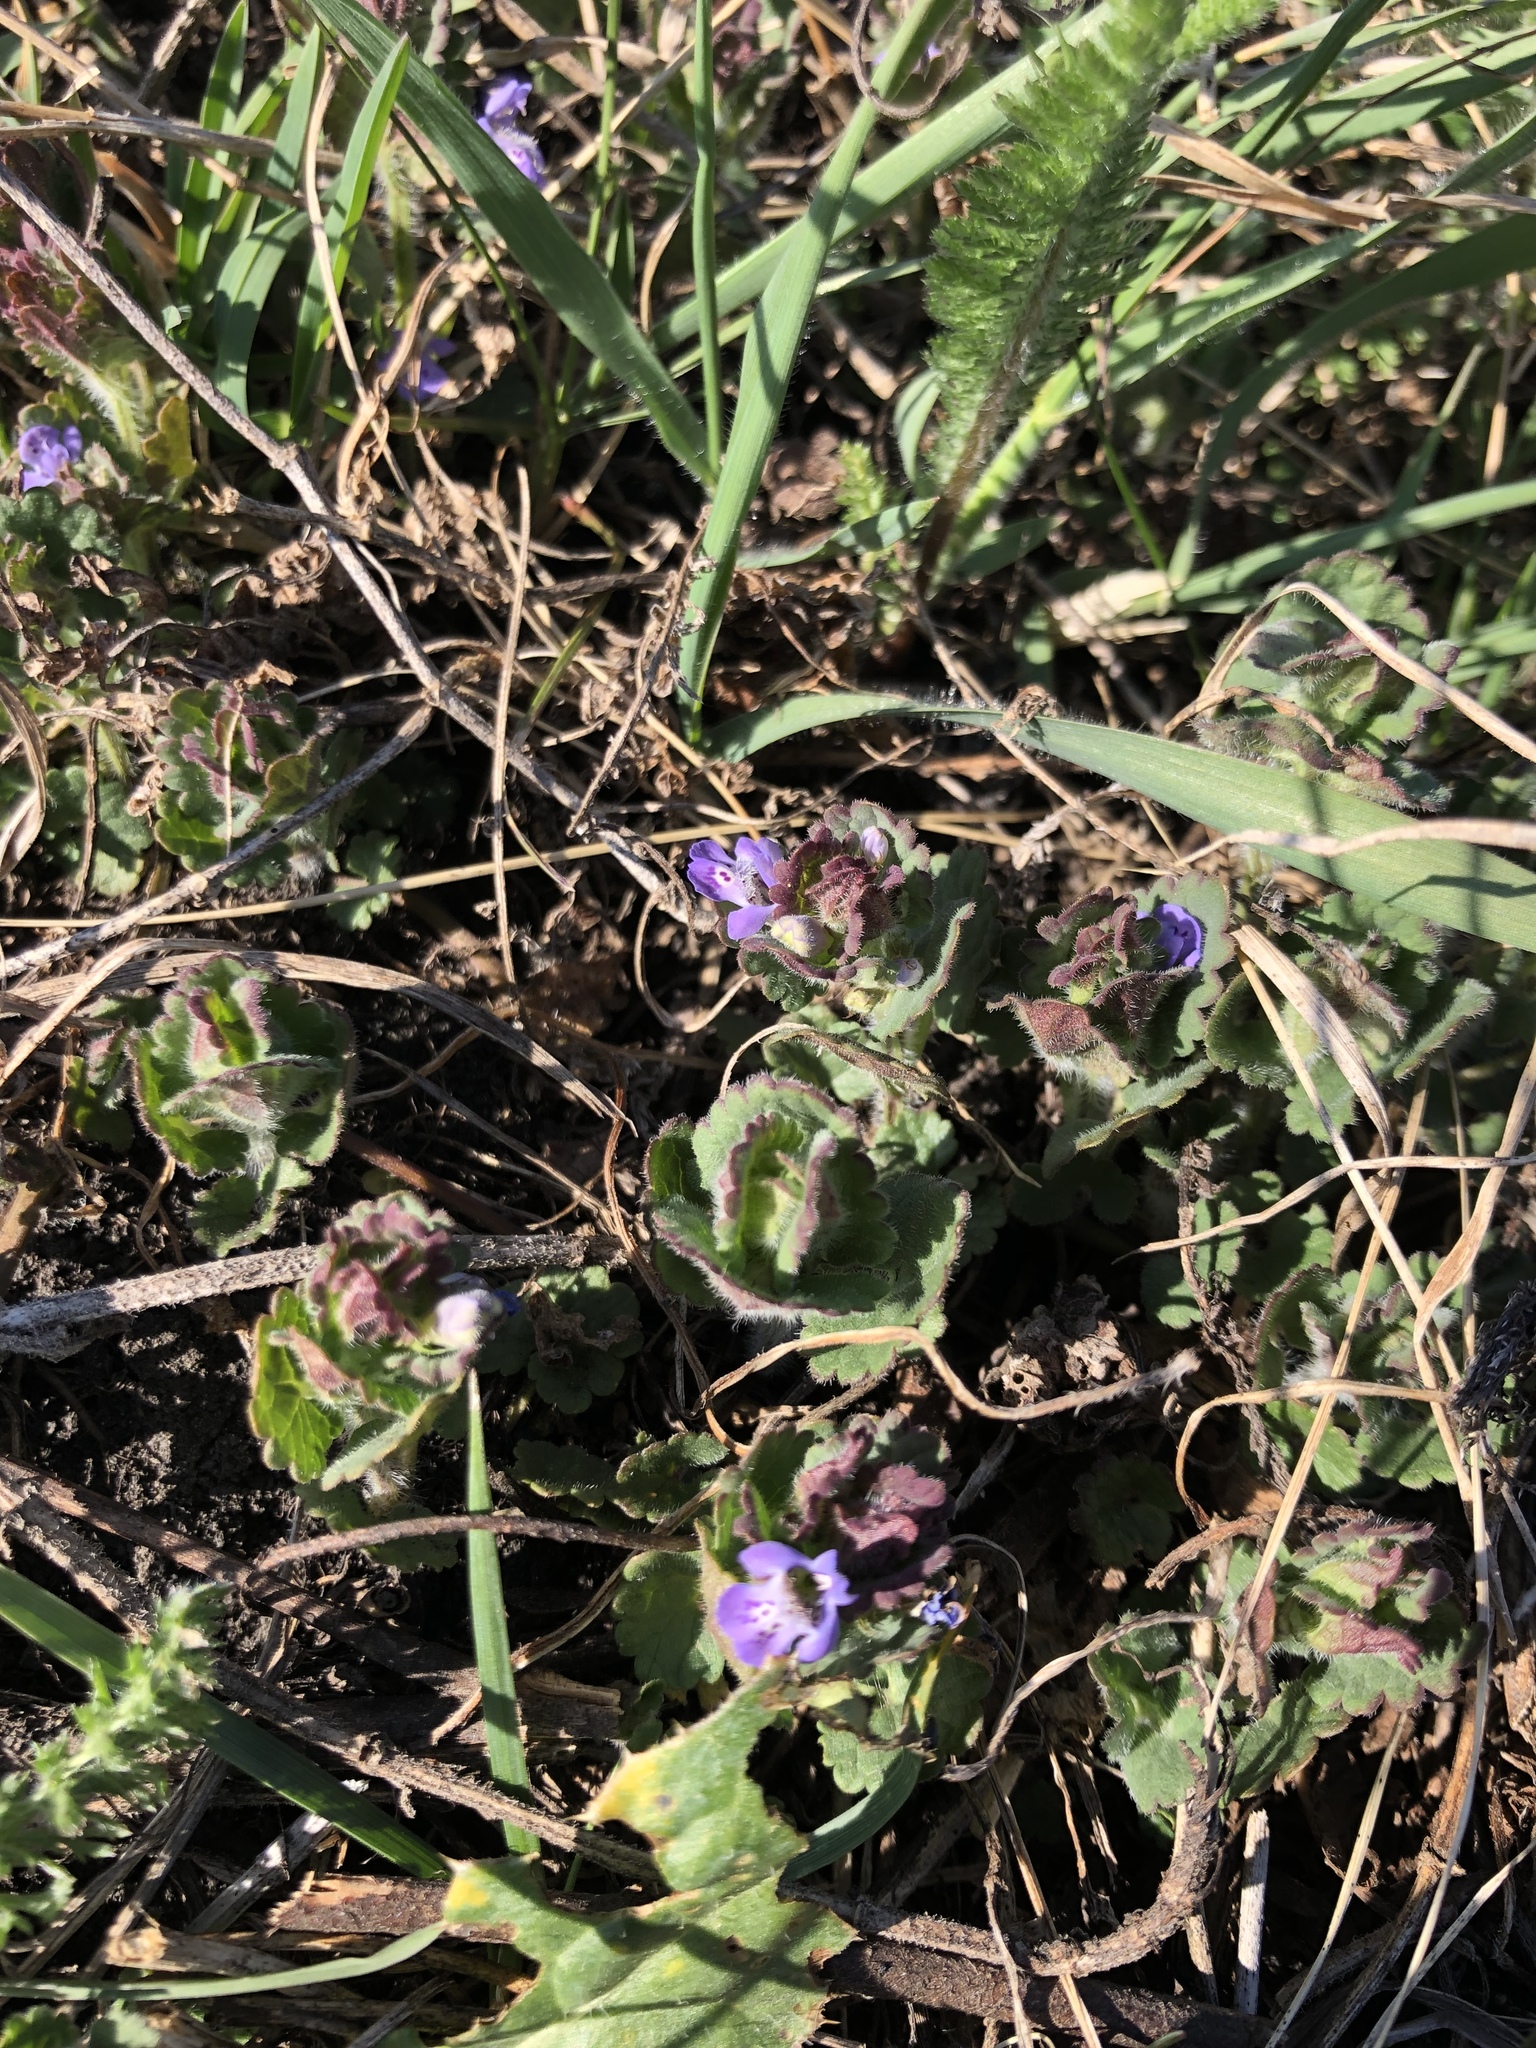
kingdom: Plantae
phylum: Tracheophyta
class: Magnoliopsida
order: Lamiales
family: Lamiaceae
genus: Glechoma
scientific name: Glechoma hederacea
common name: Ground ivy
